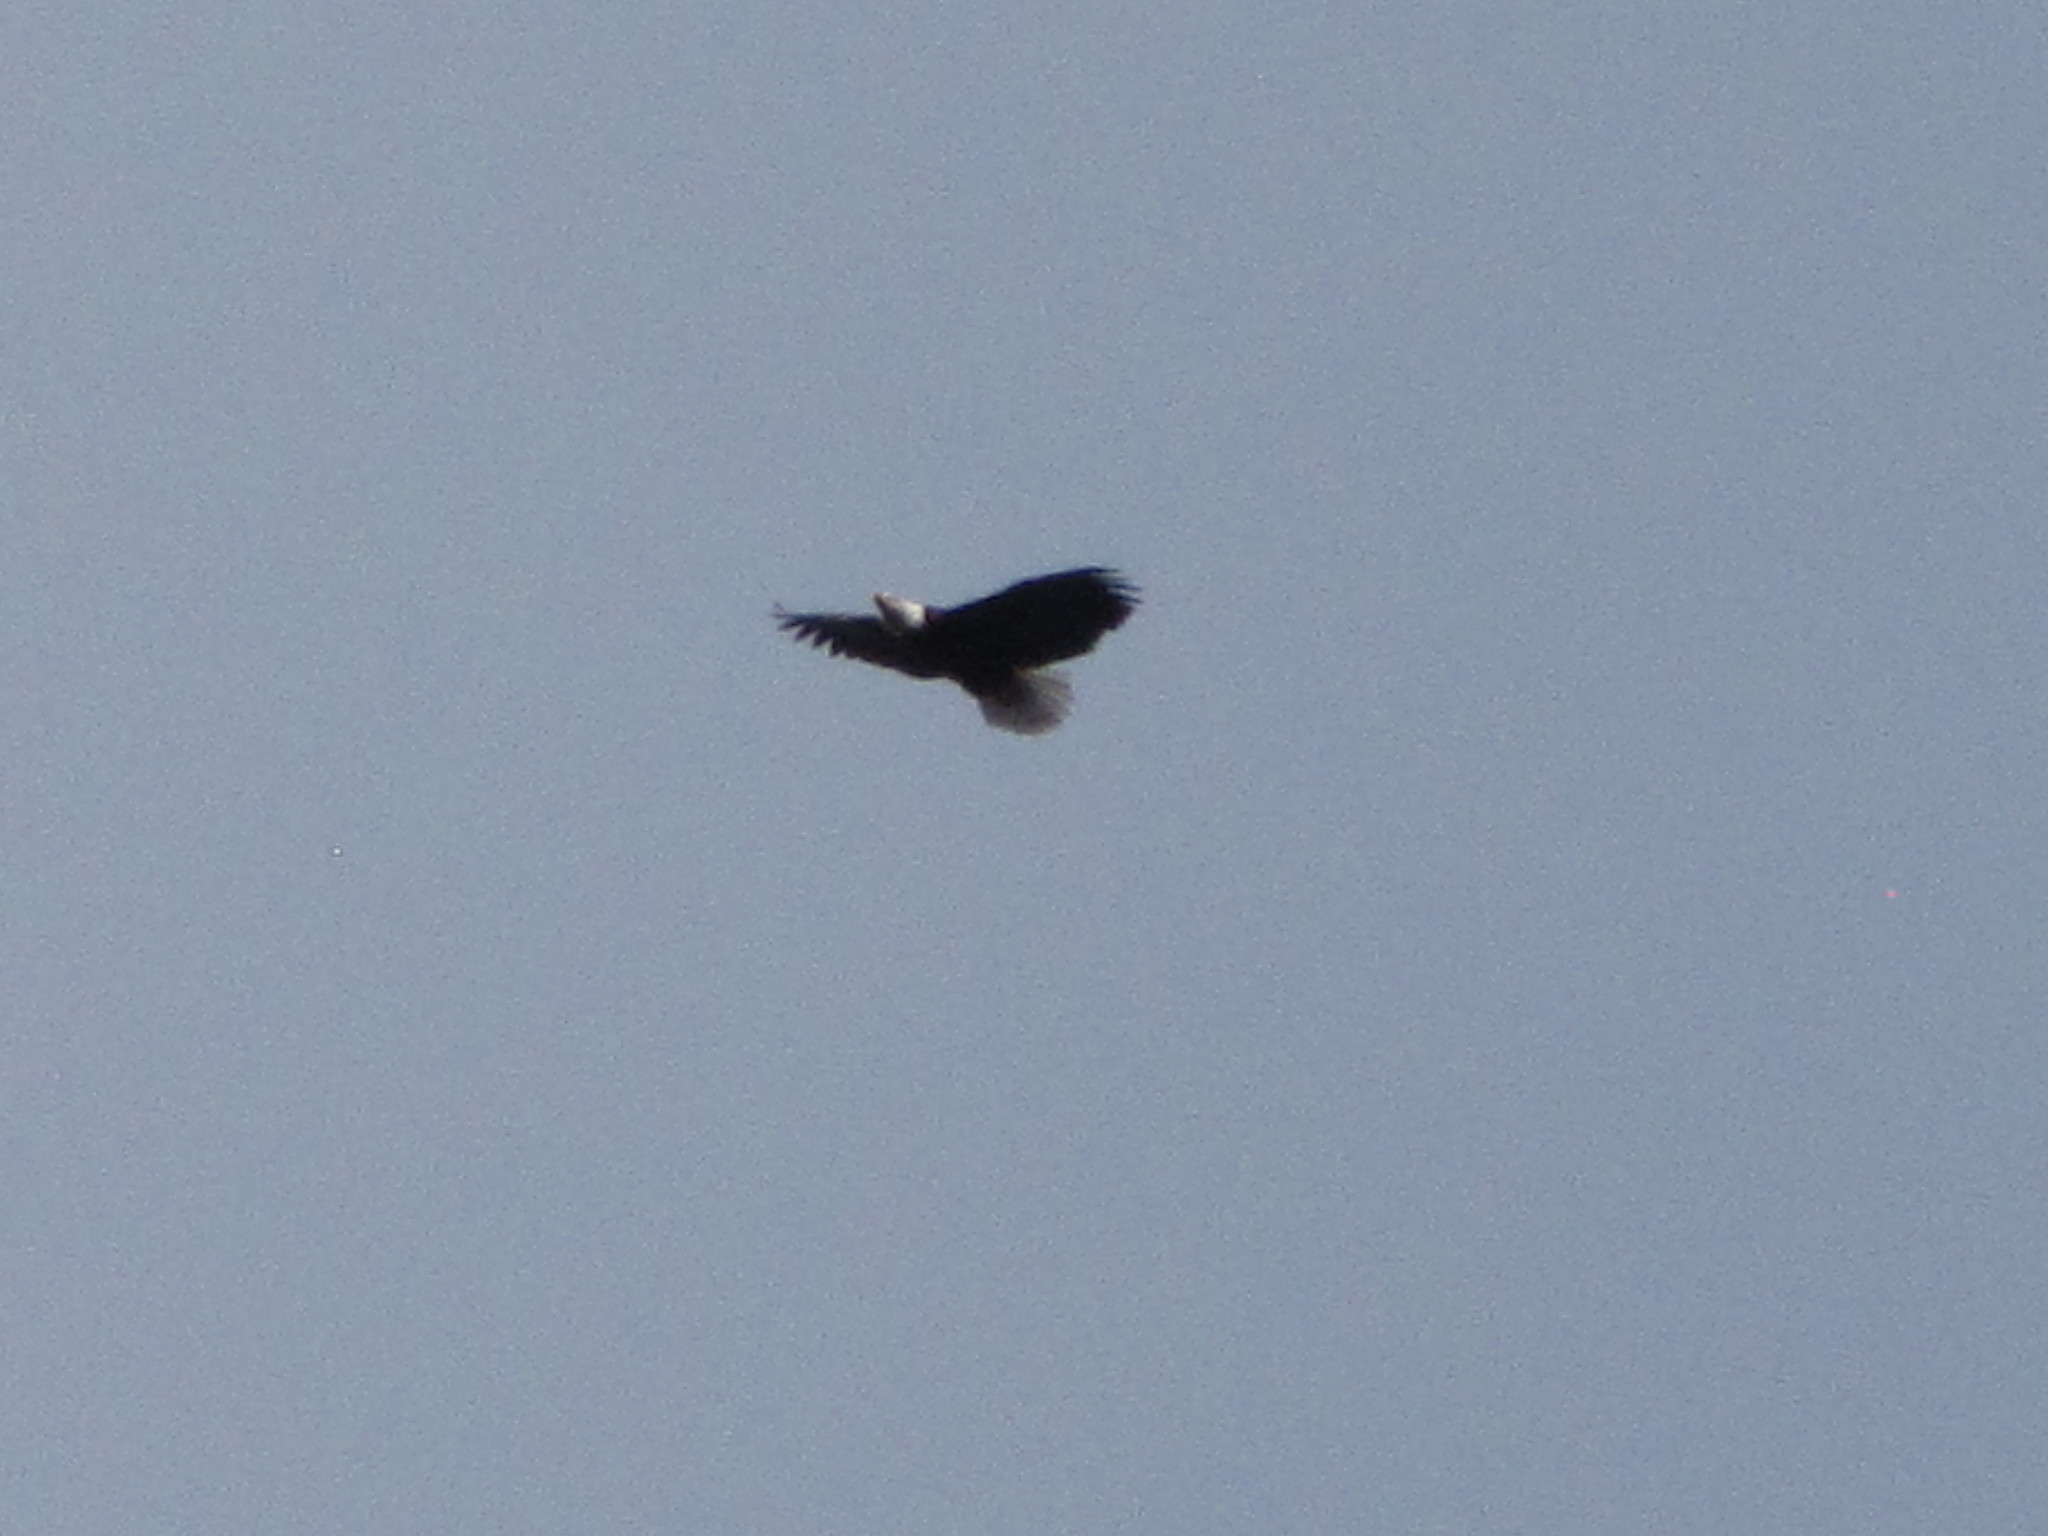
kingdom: Animalia
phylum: Chordata
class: Aves
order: Accipitriformes
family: Accipitridae
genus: Haliaeetus
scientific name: Haliaeetus leucocephalus
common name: Bald eagle
